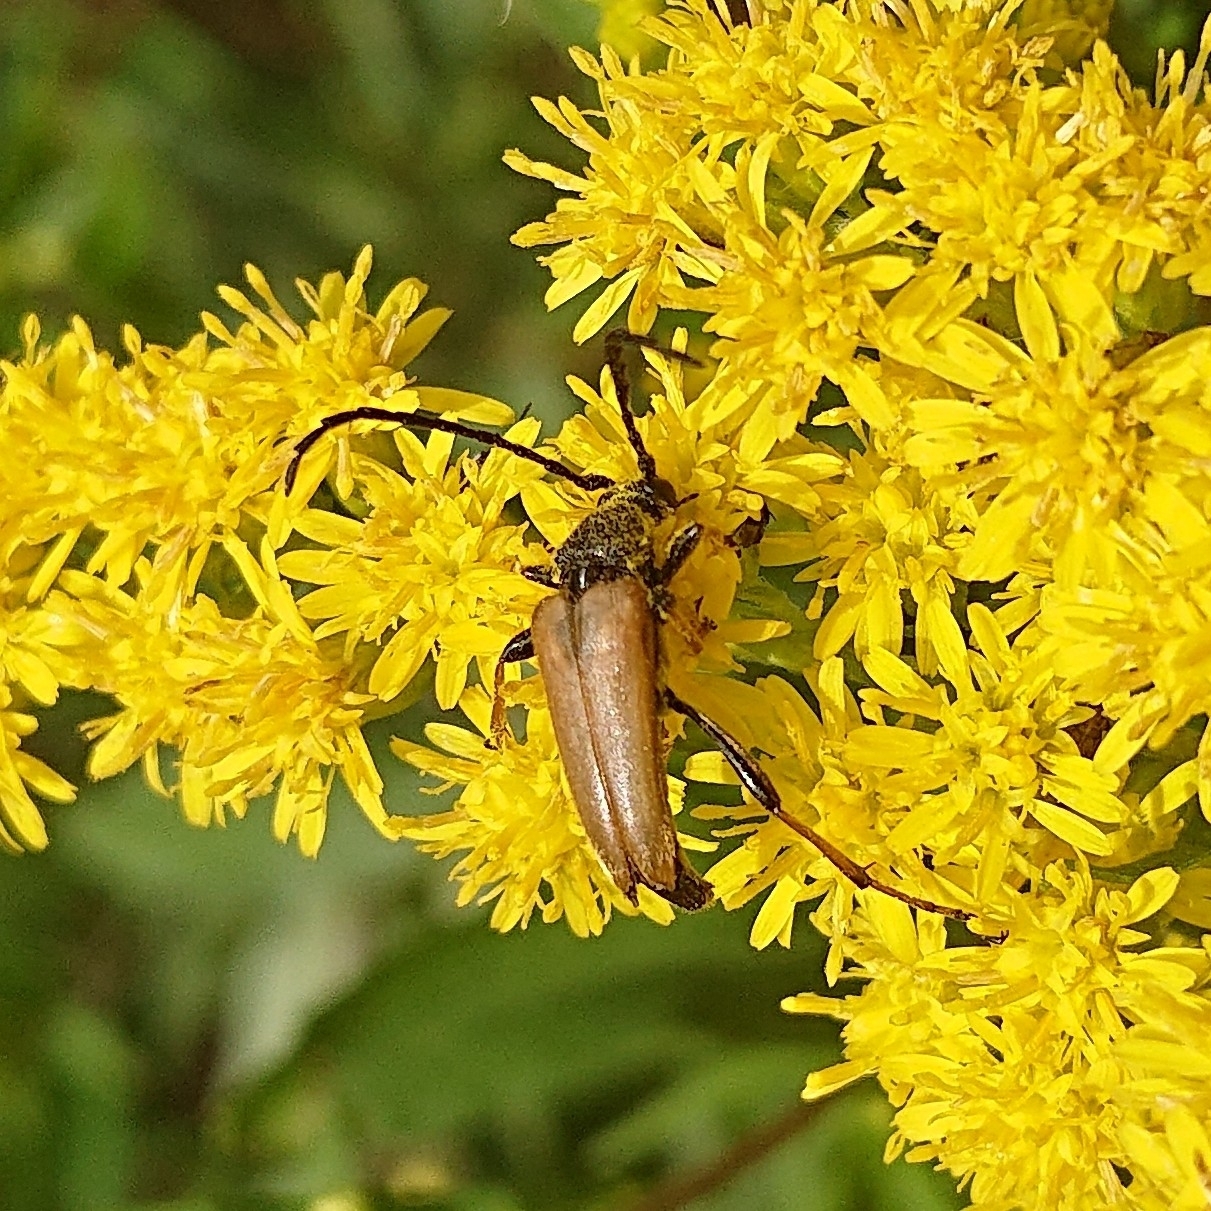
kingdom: Animalia
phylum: Arthropoda
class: Insecta
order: Coleoptera
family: Cerambycidae
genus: Stictoleptura
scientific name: Stictoleptura rubra
